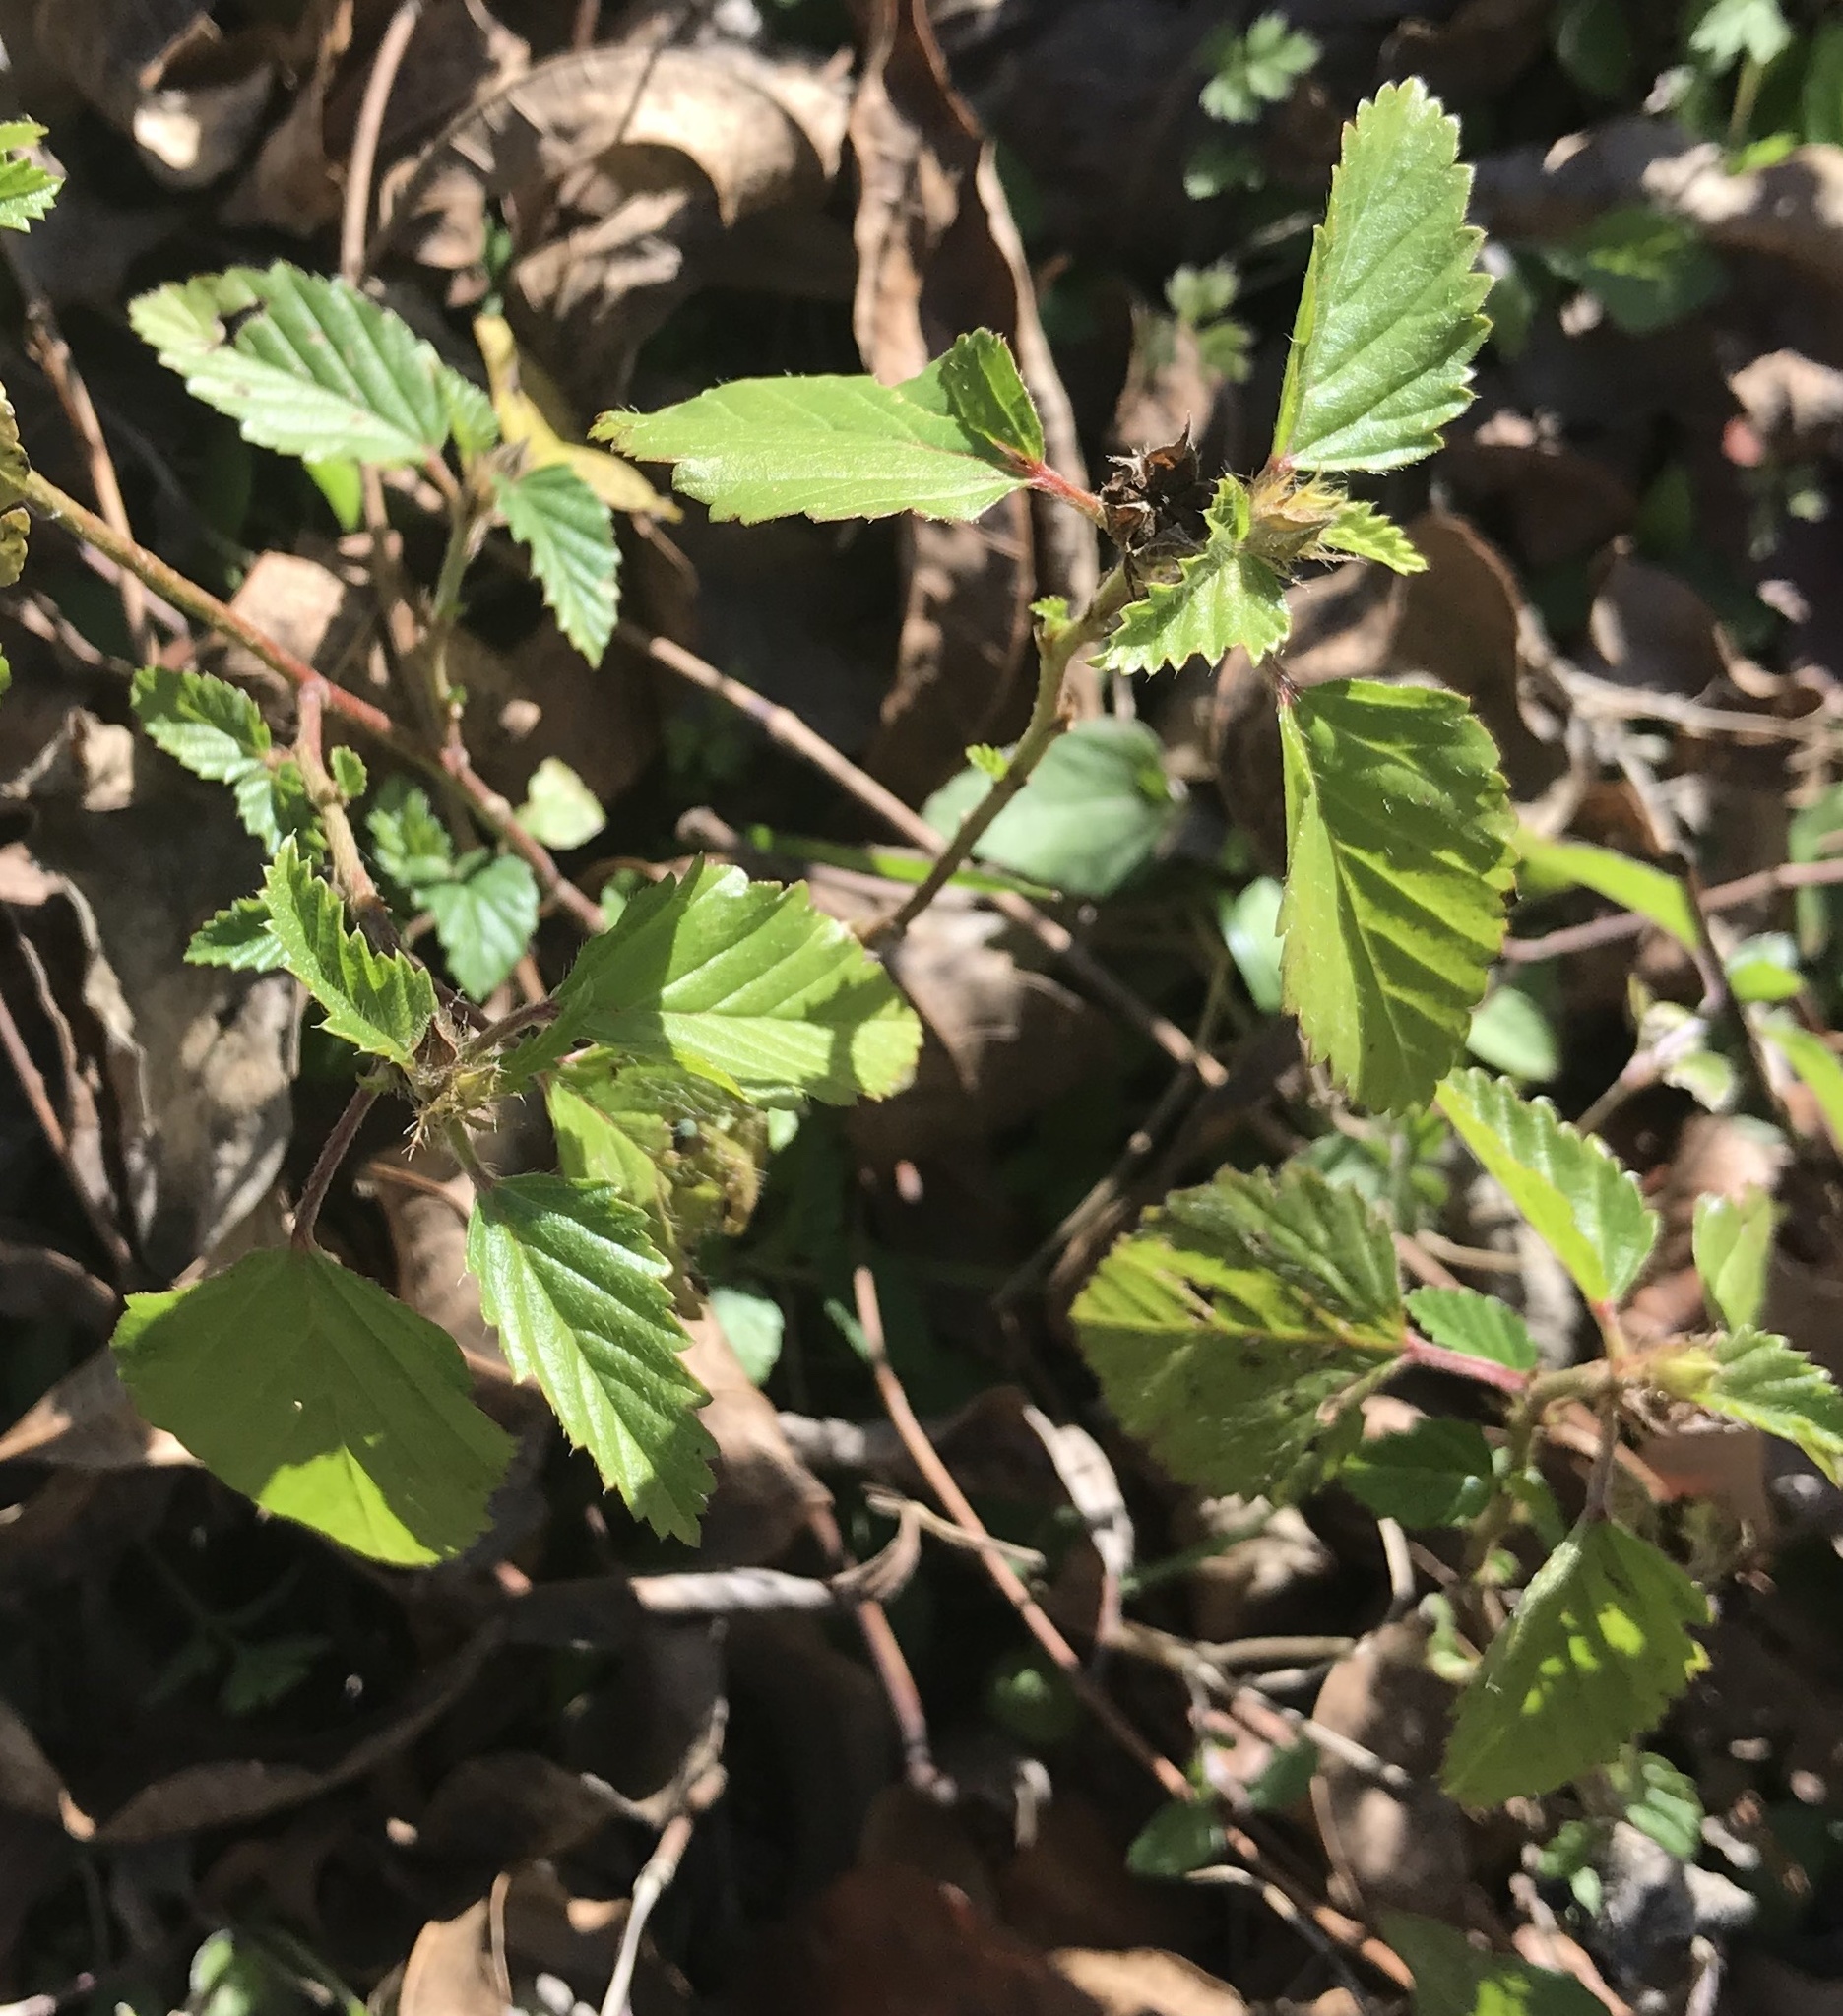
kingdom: Plantae
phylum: Tracheophyta
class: Magnoliopsida
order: Malvales
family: Malvaceae
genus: Malvastrum
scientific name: Malvastrum coromandelianum
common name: Threelobe false mallow
